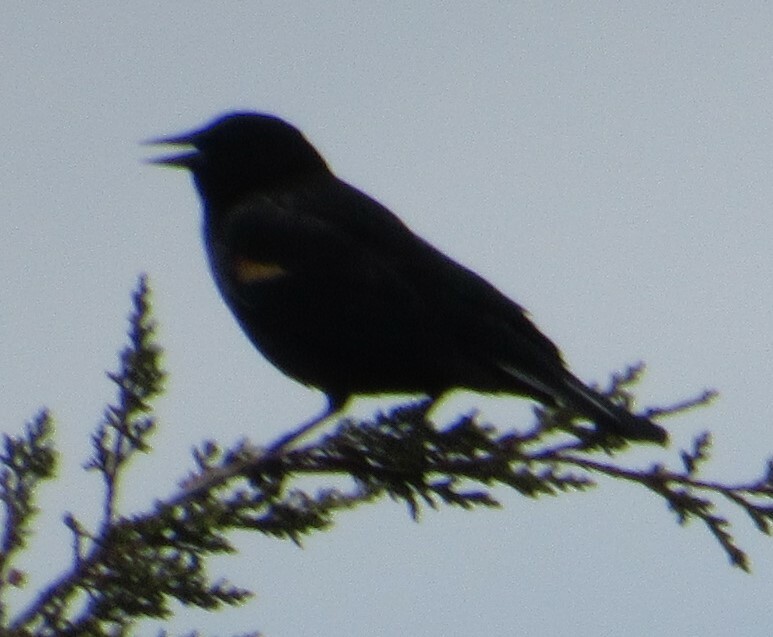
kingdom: Animalia
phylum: Chordata
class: Aves
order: Passeriformes
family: Icteridae
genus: Agelaius
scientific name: Agelaius phoeniceus
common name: Red-winged blackbird
